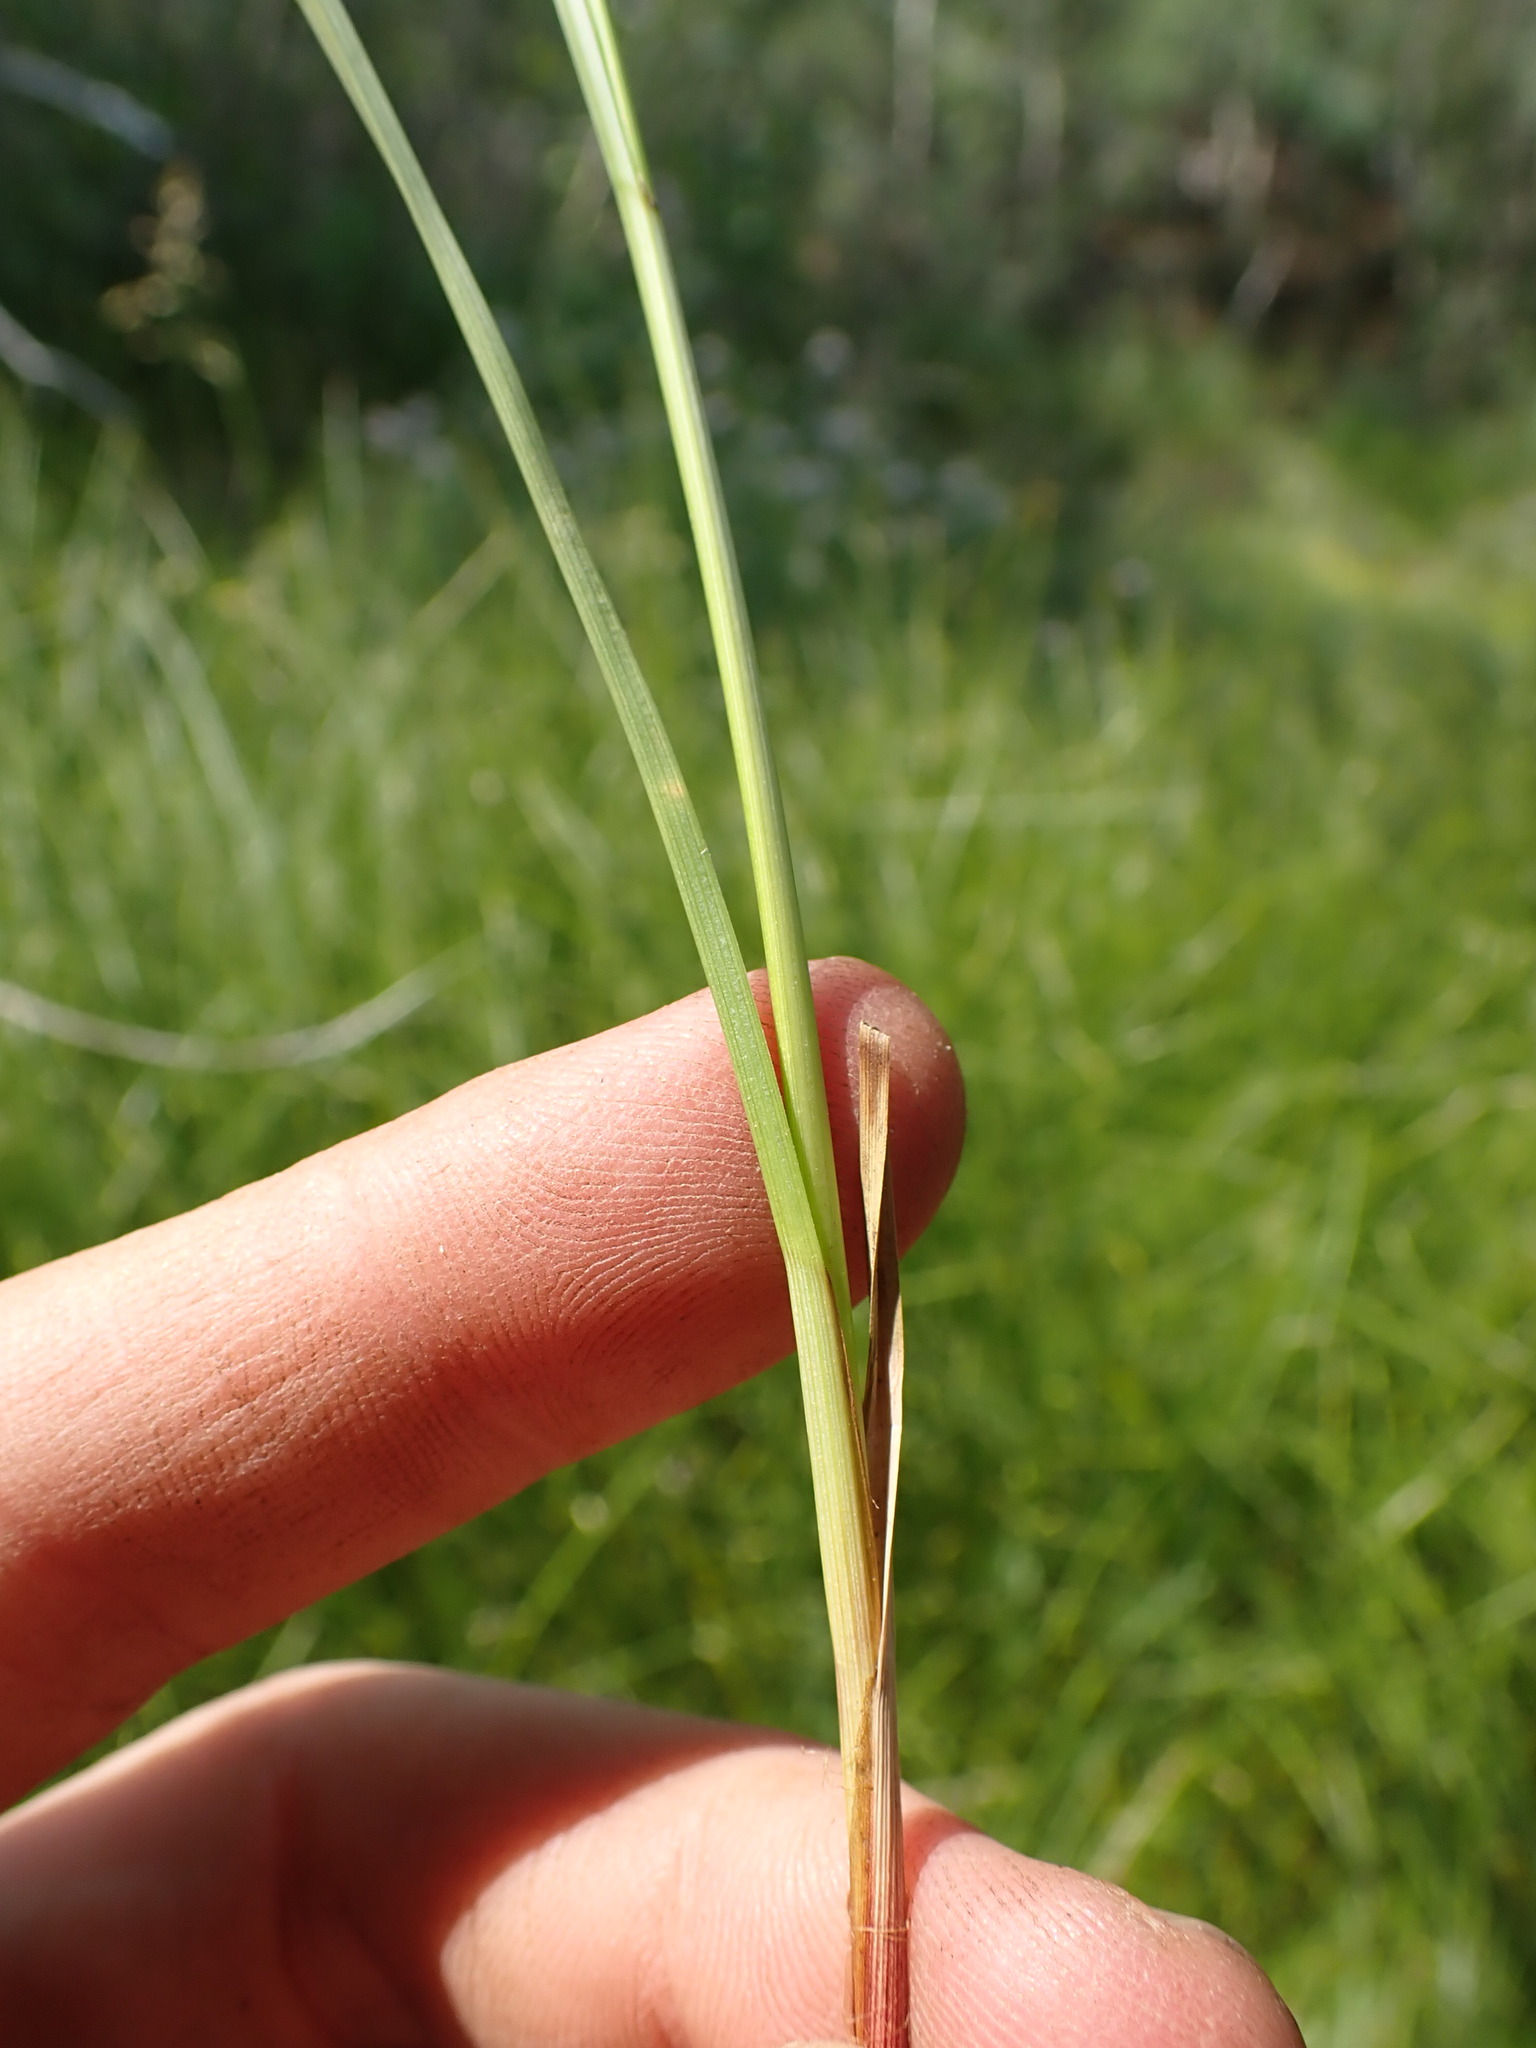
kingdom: Plantae
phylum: Tracheophyta
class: Liliopsida
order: Poales
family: Cyperaceae
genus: Carex
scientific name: Carex pellita
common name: Woolly sedge
